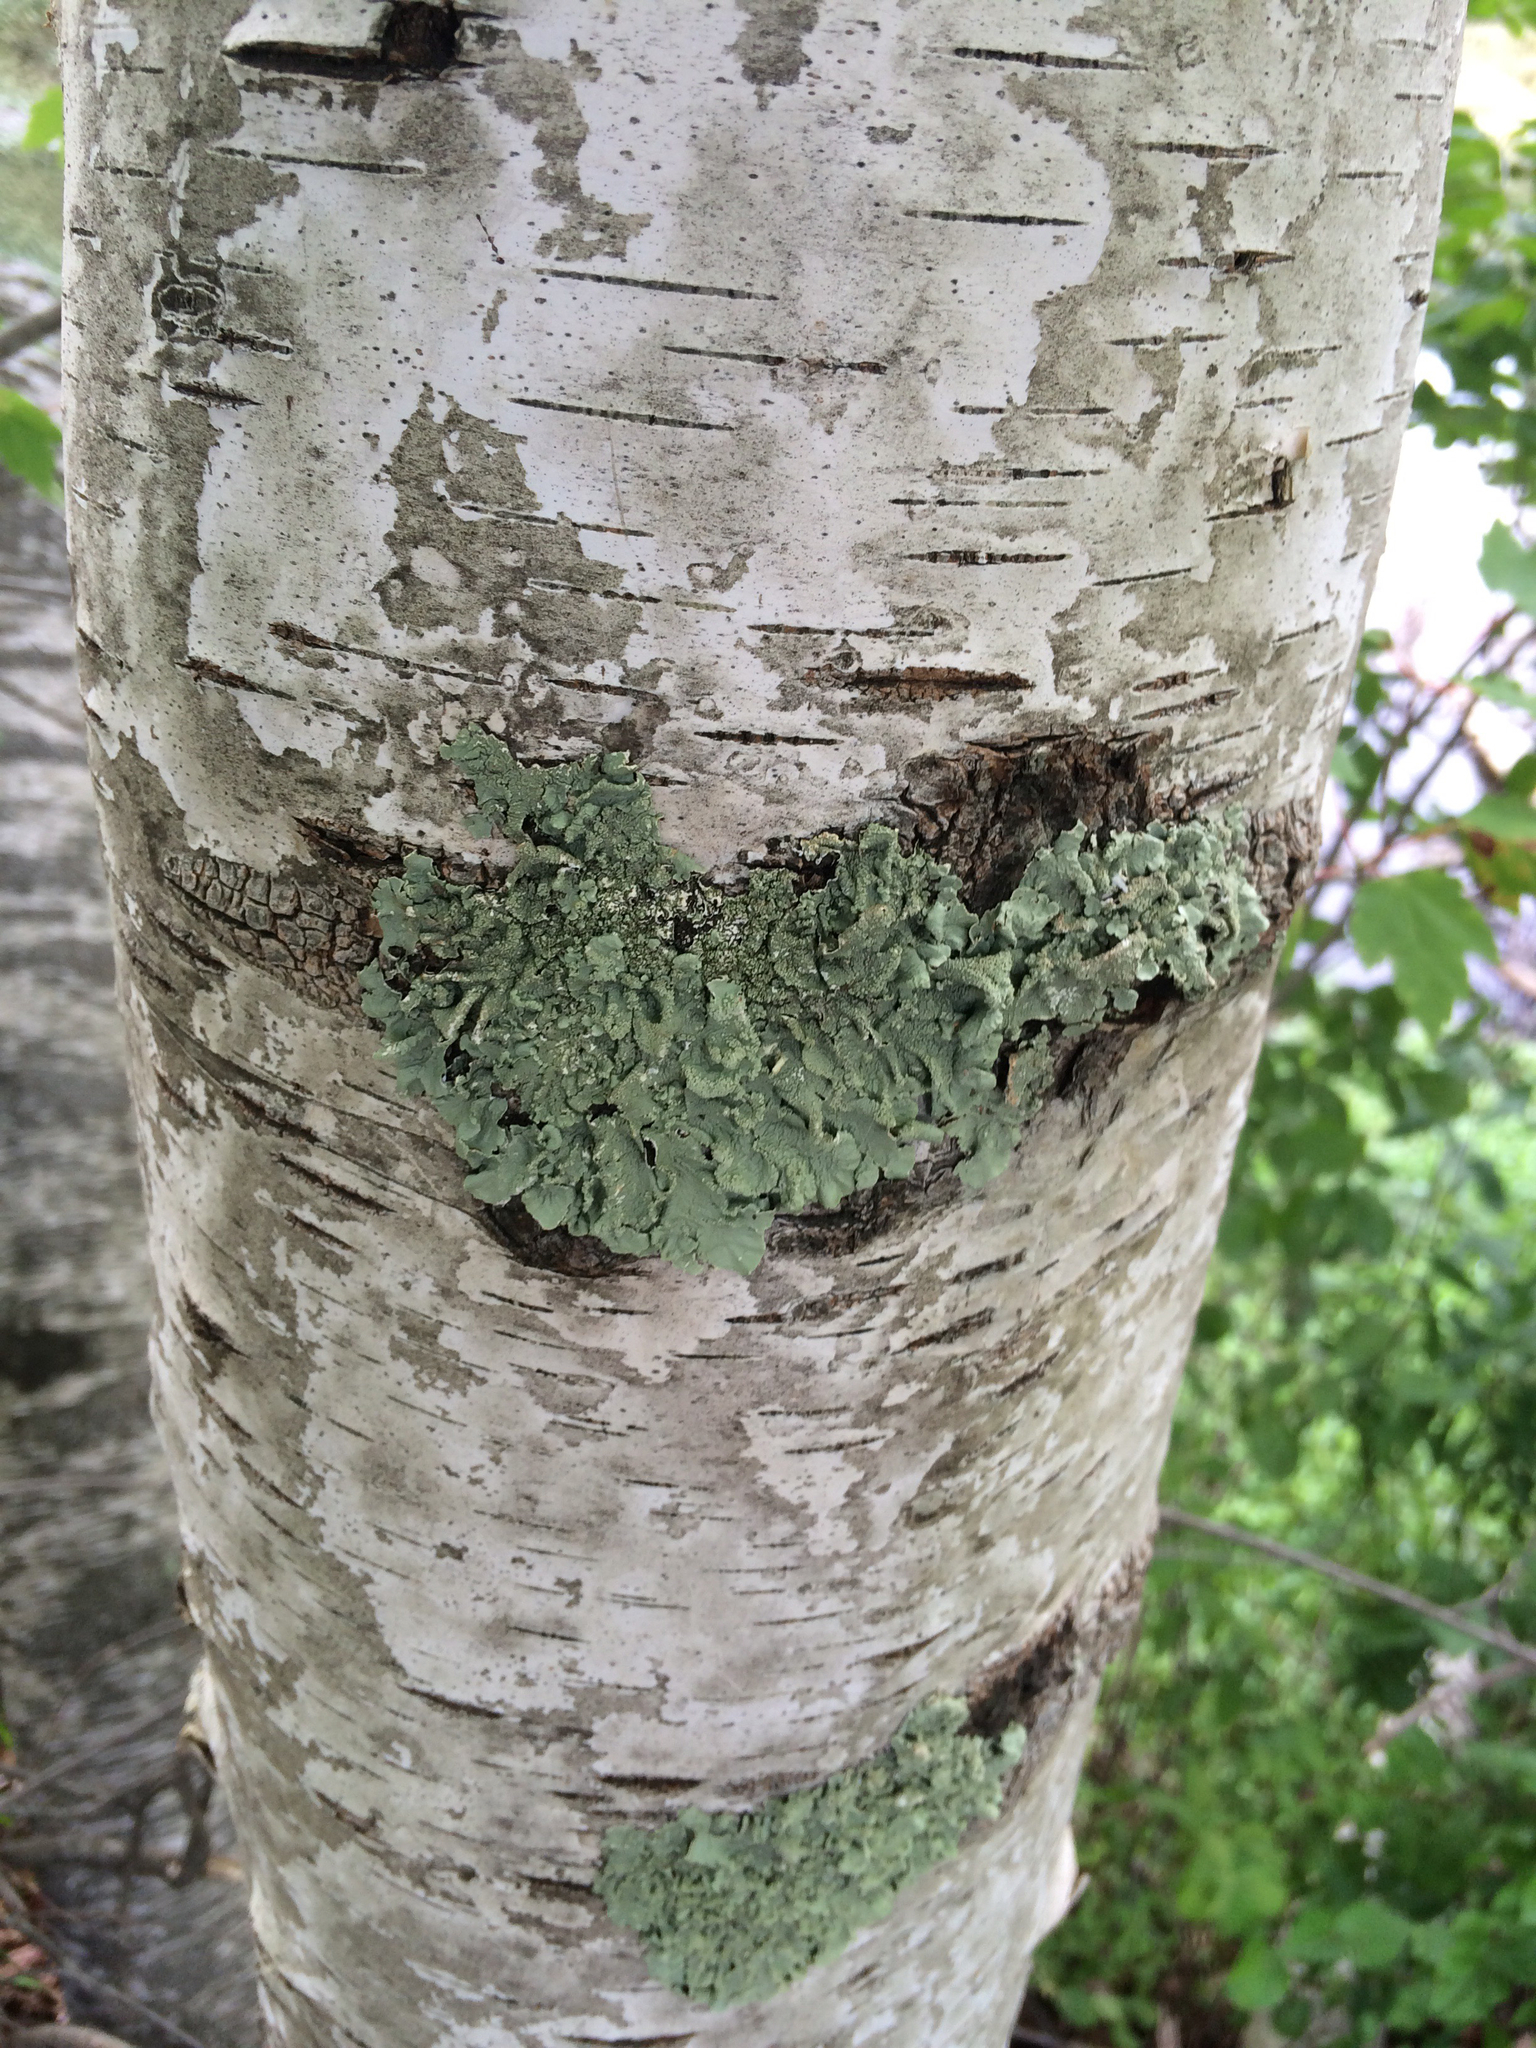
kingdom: Fungi
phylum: Ascomycota
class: Lecanoromycetes
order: Lecanorales
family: Parmeliaceae
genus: Flavoparmelia
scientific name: Flavoparmelia caperata
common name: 40-mile per hour lichen
